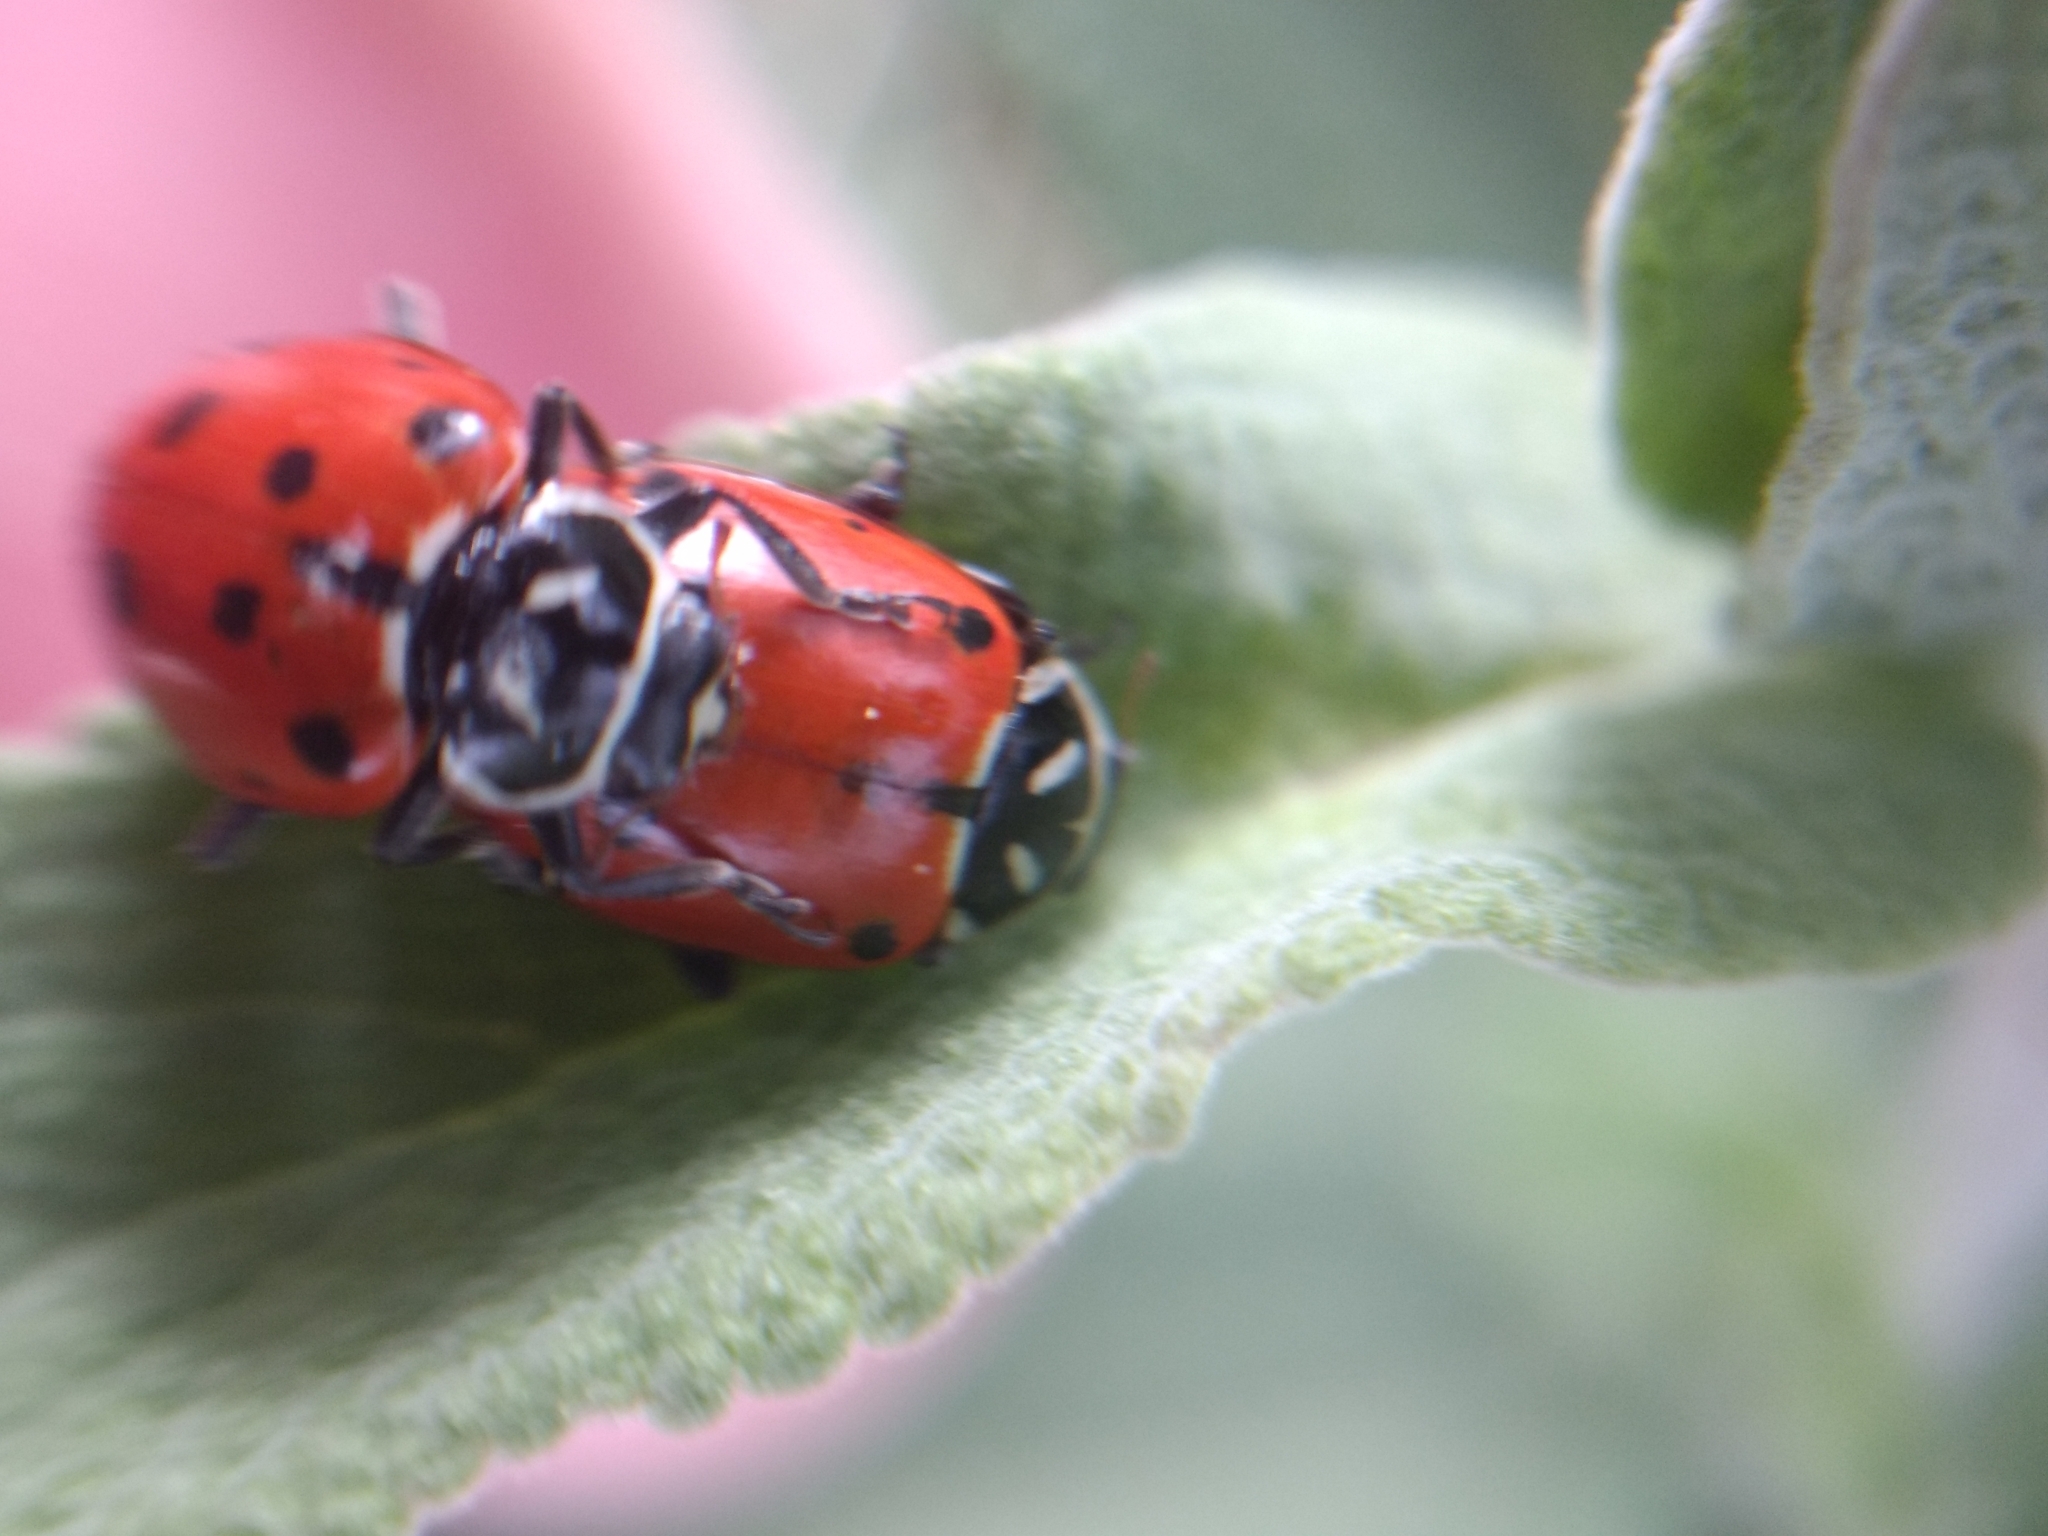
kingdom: Animalia
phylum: Arthropoda
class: Insecta
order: Coleoptera
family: Coccinellidae
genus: Hippodamia
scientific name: Hippodamia convergens
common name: Convergent lady beetle
